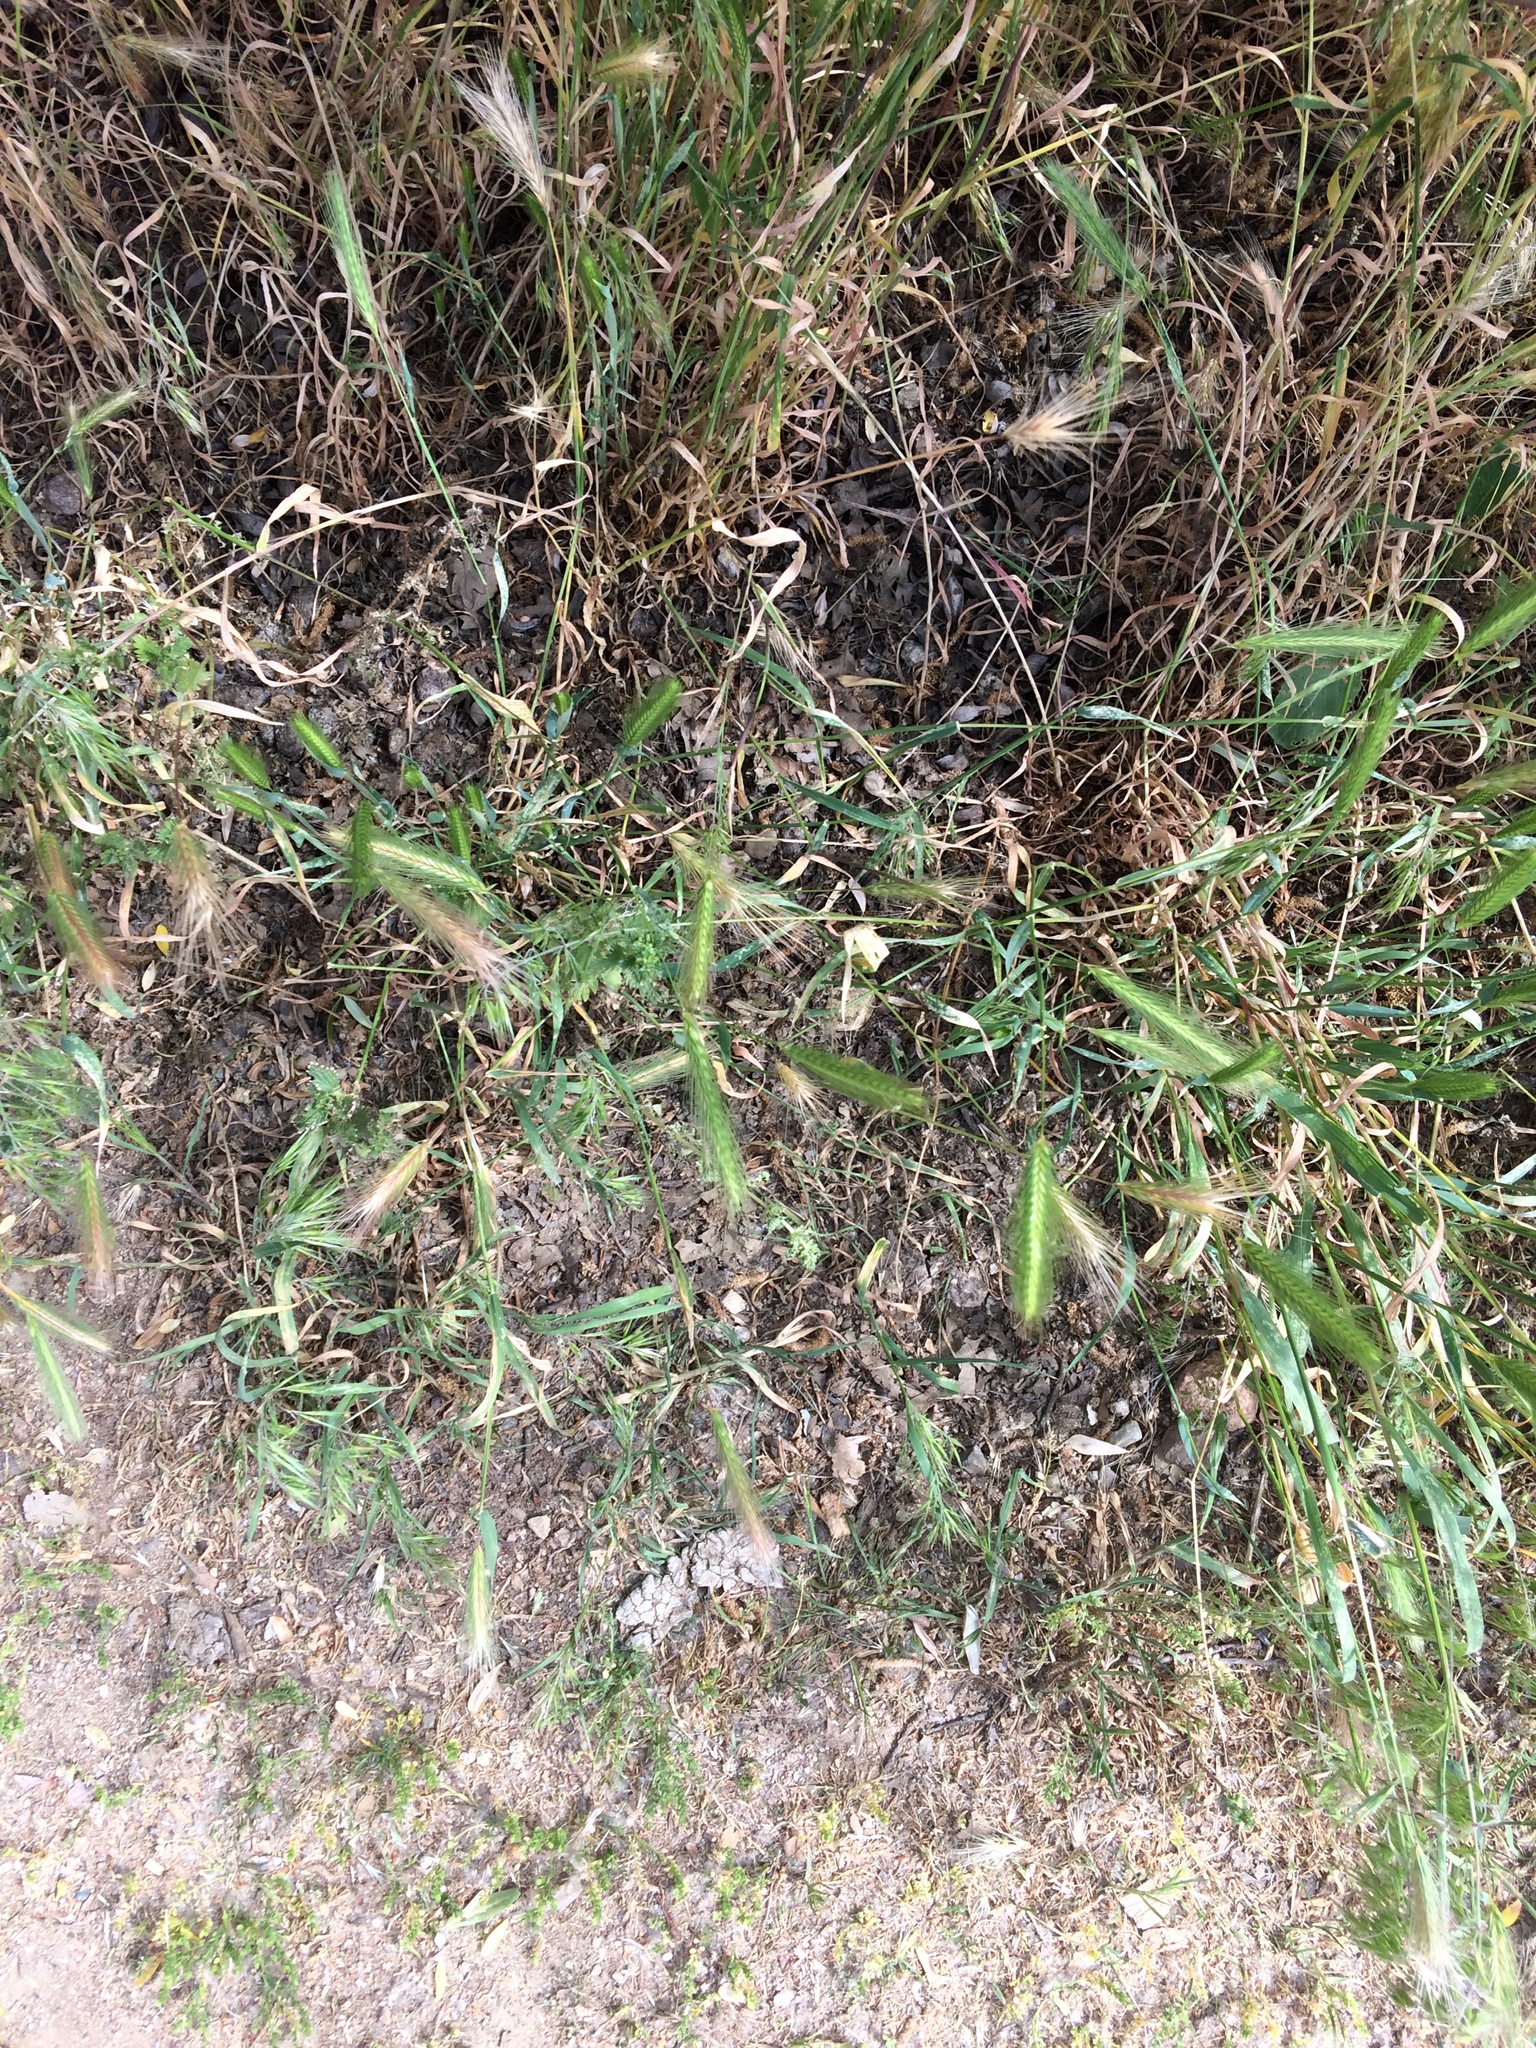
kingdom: Plantae
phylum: Tracheophyta
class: Liliopsida
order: Poales
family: Poaceae
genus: Hordeum
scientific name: Hordeum murinum
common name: Wall barley
